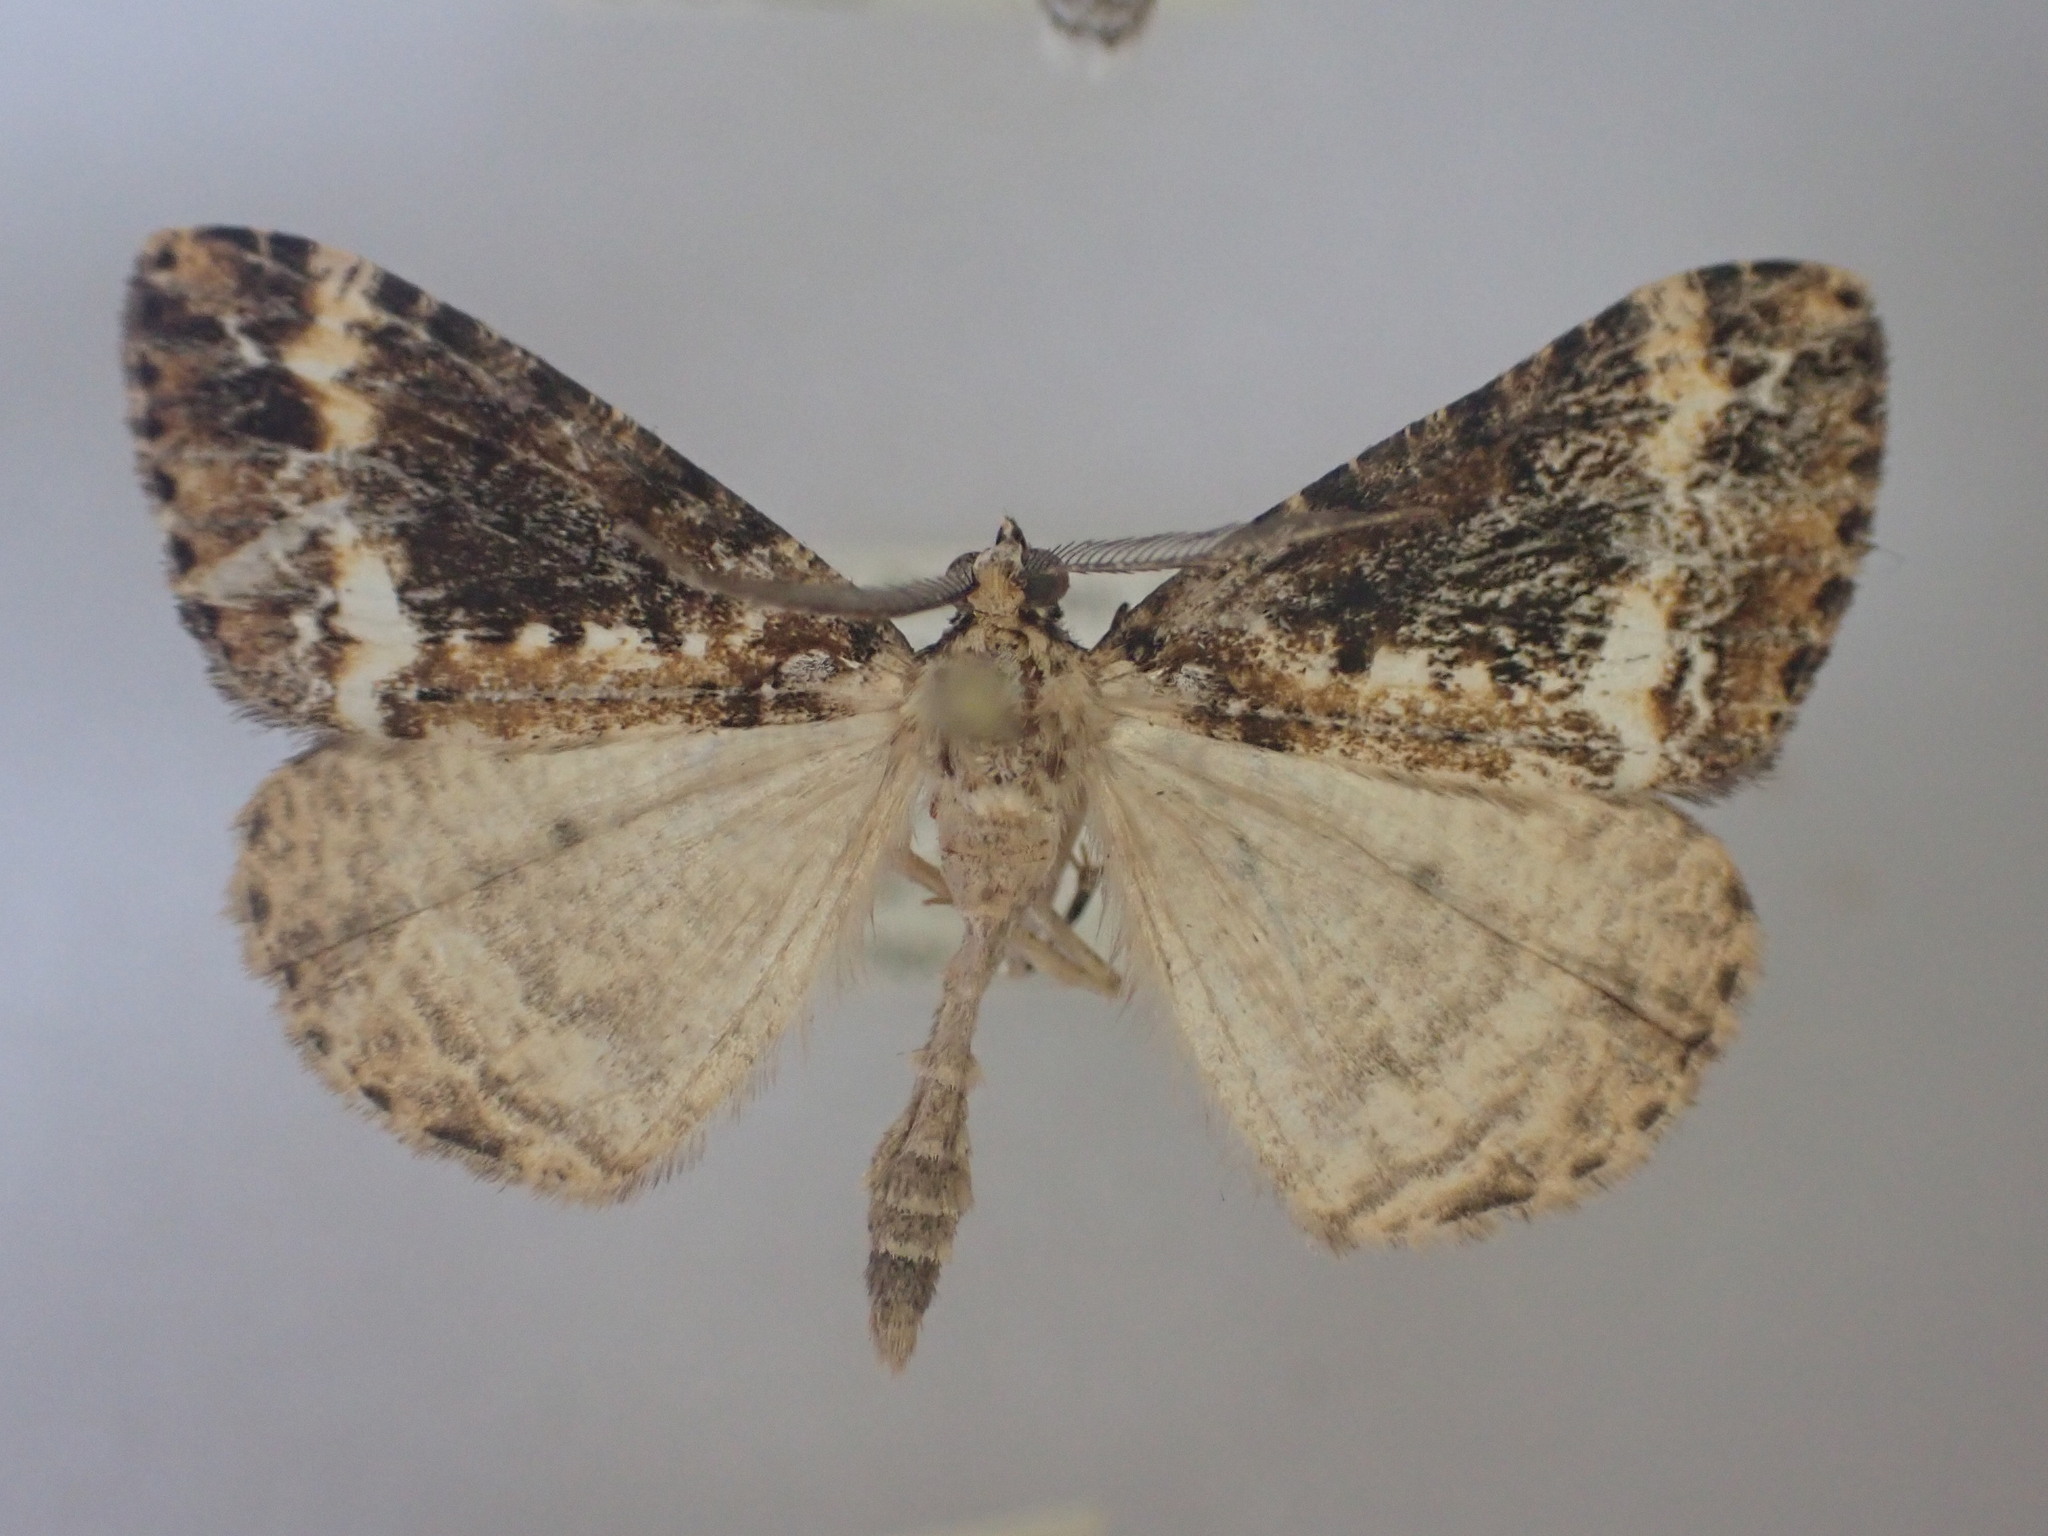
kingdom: Animalia
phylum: Arthropoda
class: Insecta
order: Lepidoptera
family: Geometridae
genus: Pseudocoremia
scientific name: Pseudocoremia leucelaea
